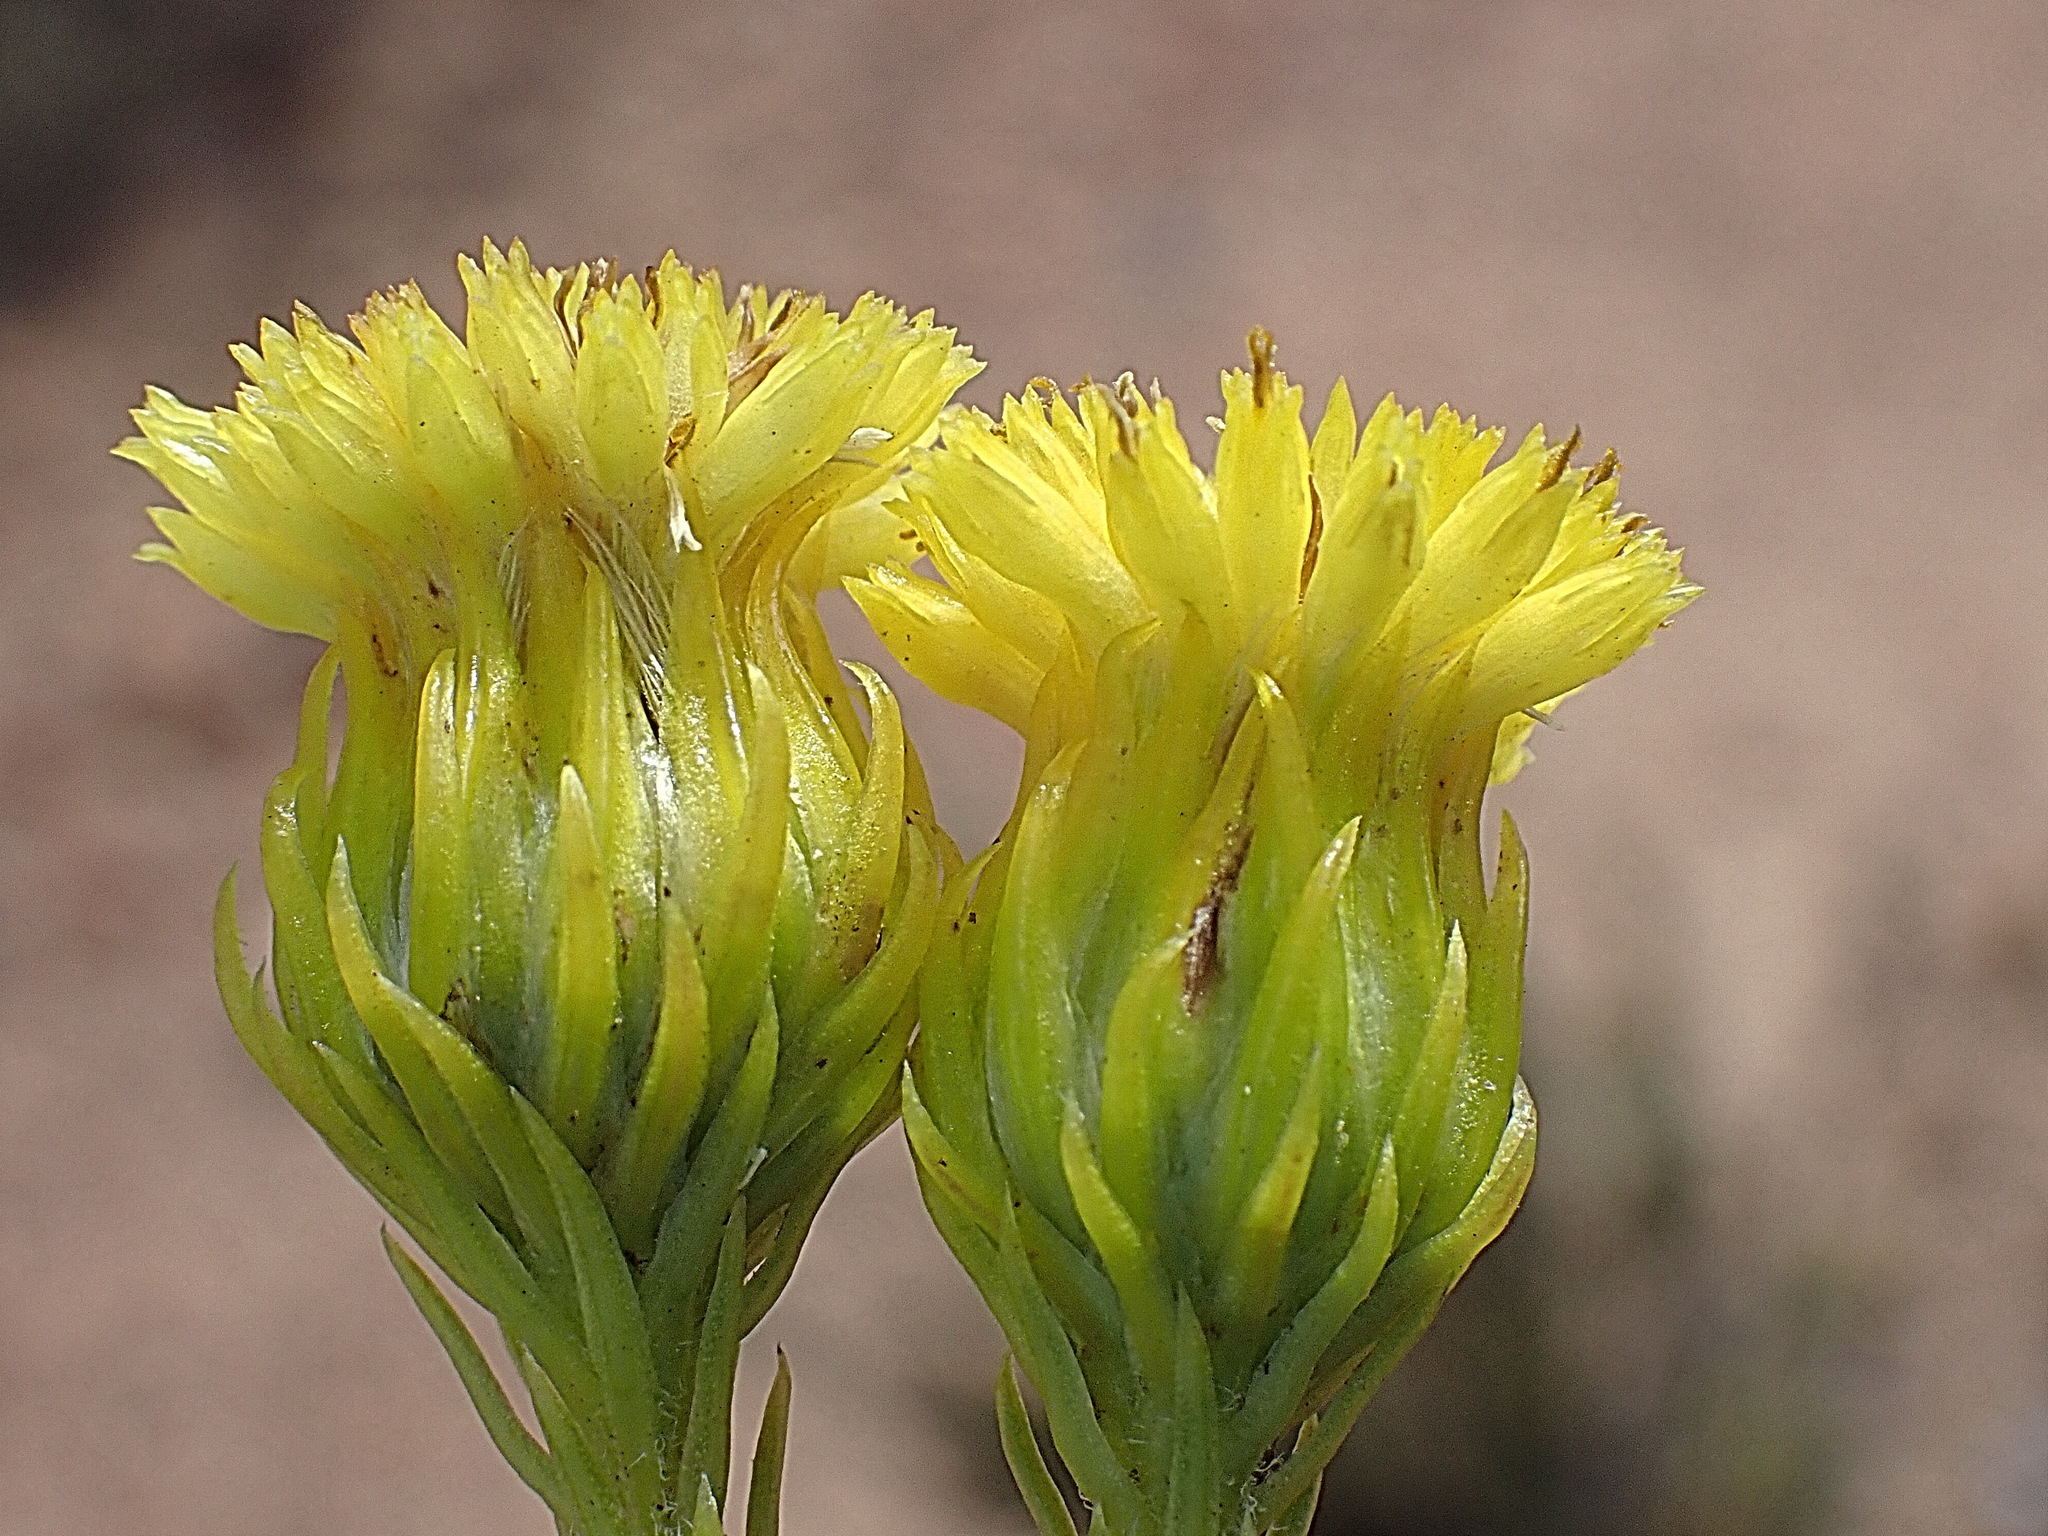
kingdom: Plantae
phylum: Tracheophyta
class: Magnoliopsida
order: Asterales
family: Asteraceae
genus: Pteronia
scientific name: Pteronia camphorata
